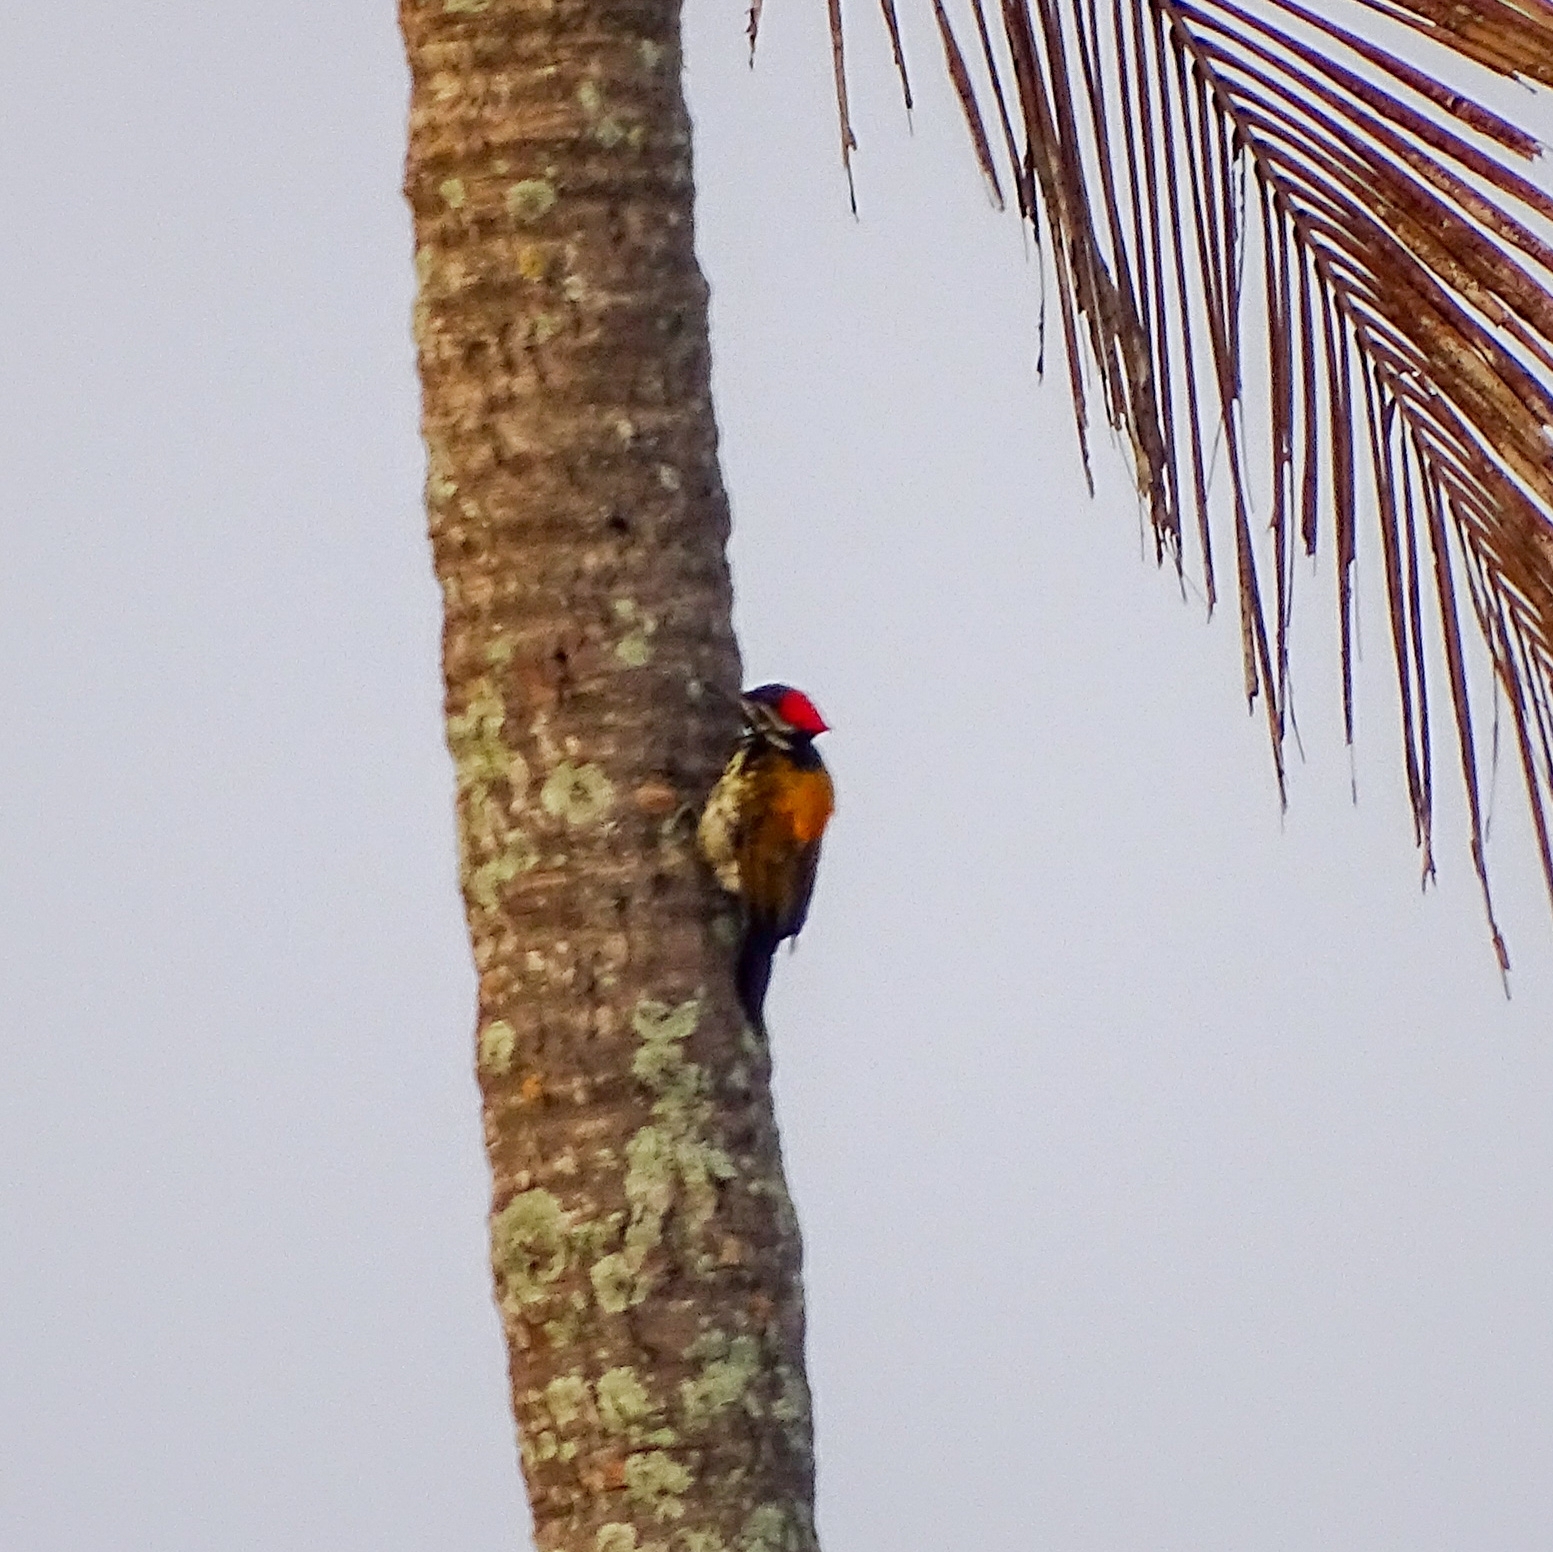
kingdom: Animalia
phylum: Chordata
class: Aves
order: Piciformes
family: Picidae
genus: Dinopium
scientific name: Dinopium benghalense
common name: Black-rumped flameback
